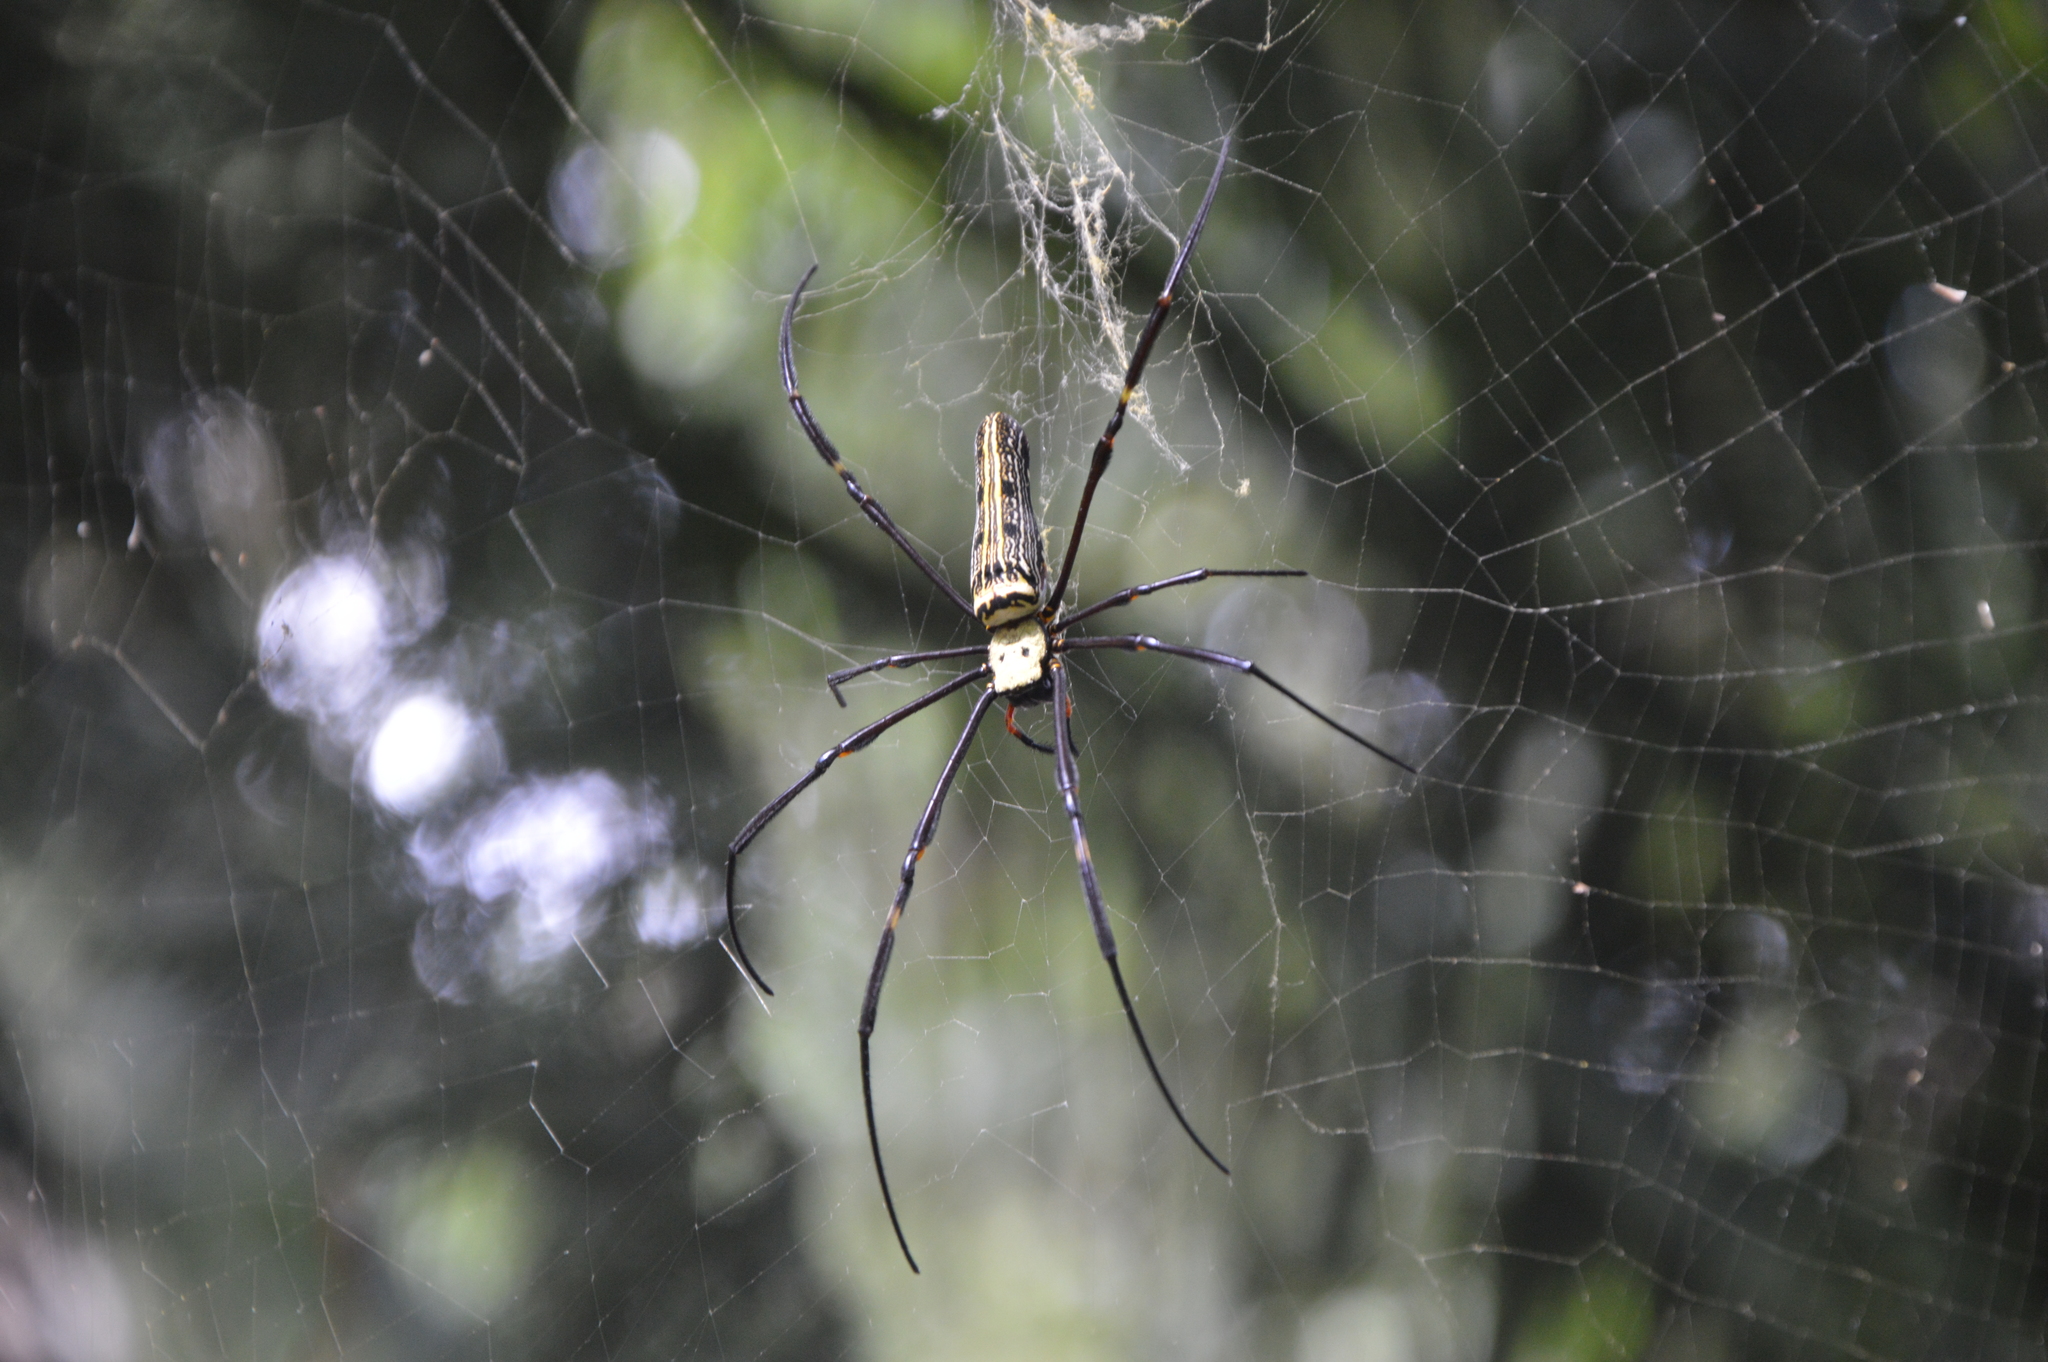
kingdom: Animalia
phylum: Arthropoda
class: Arachnida
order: Araneae
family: Araneidae
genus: Nephila
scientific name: Nephila pilipes
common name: Giant golden orb weaver
